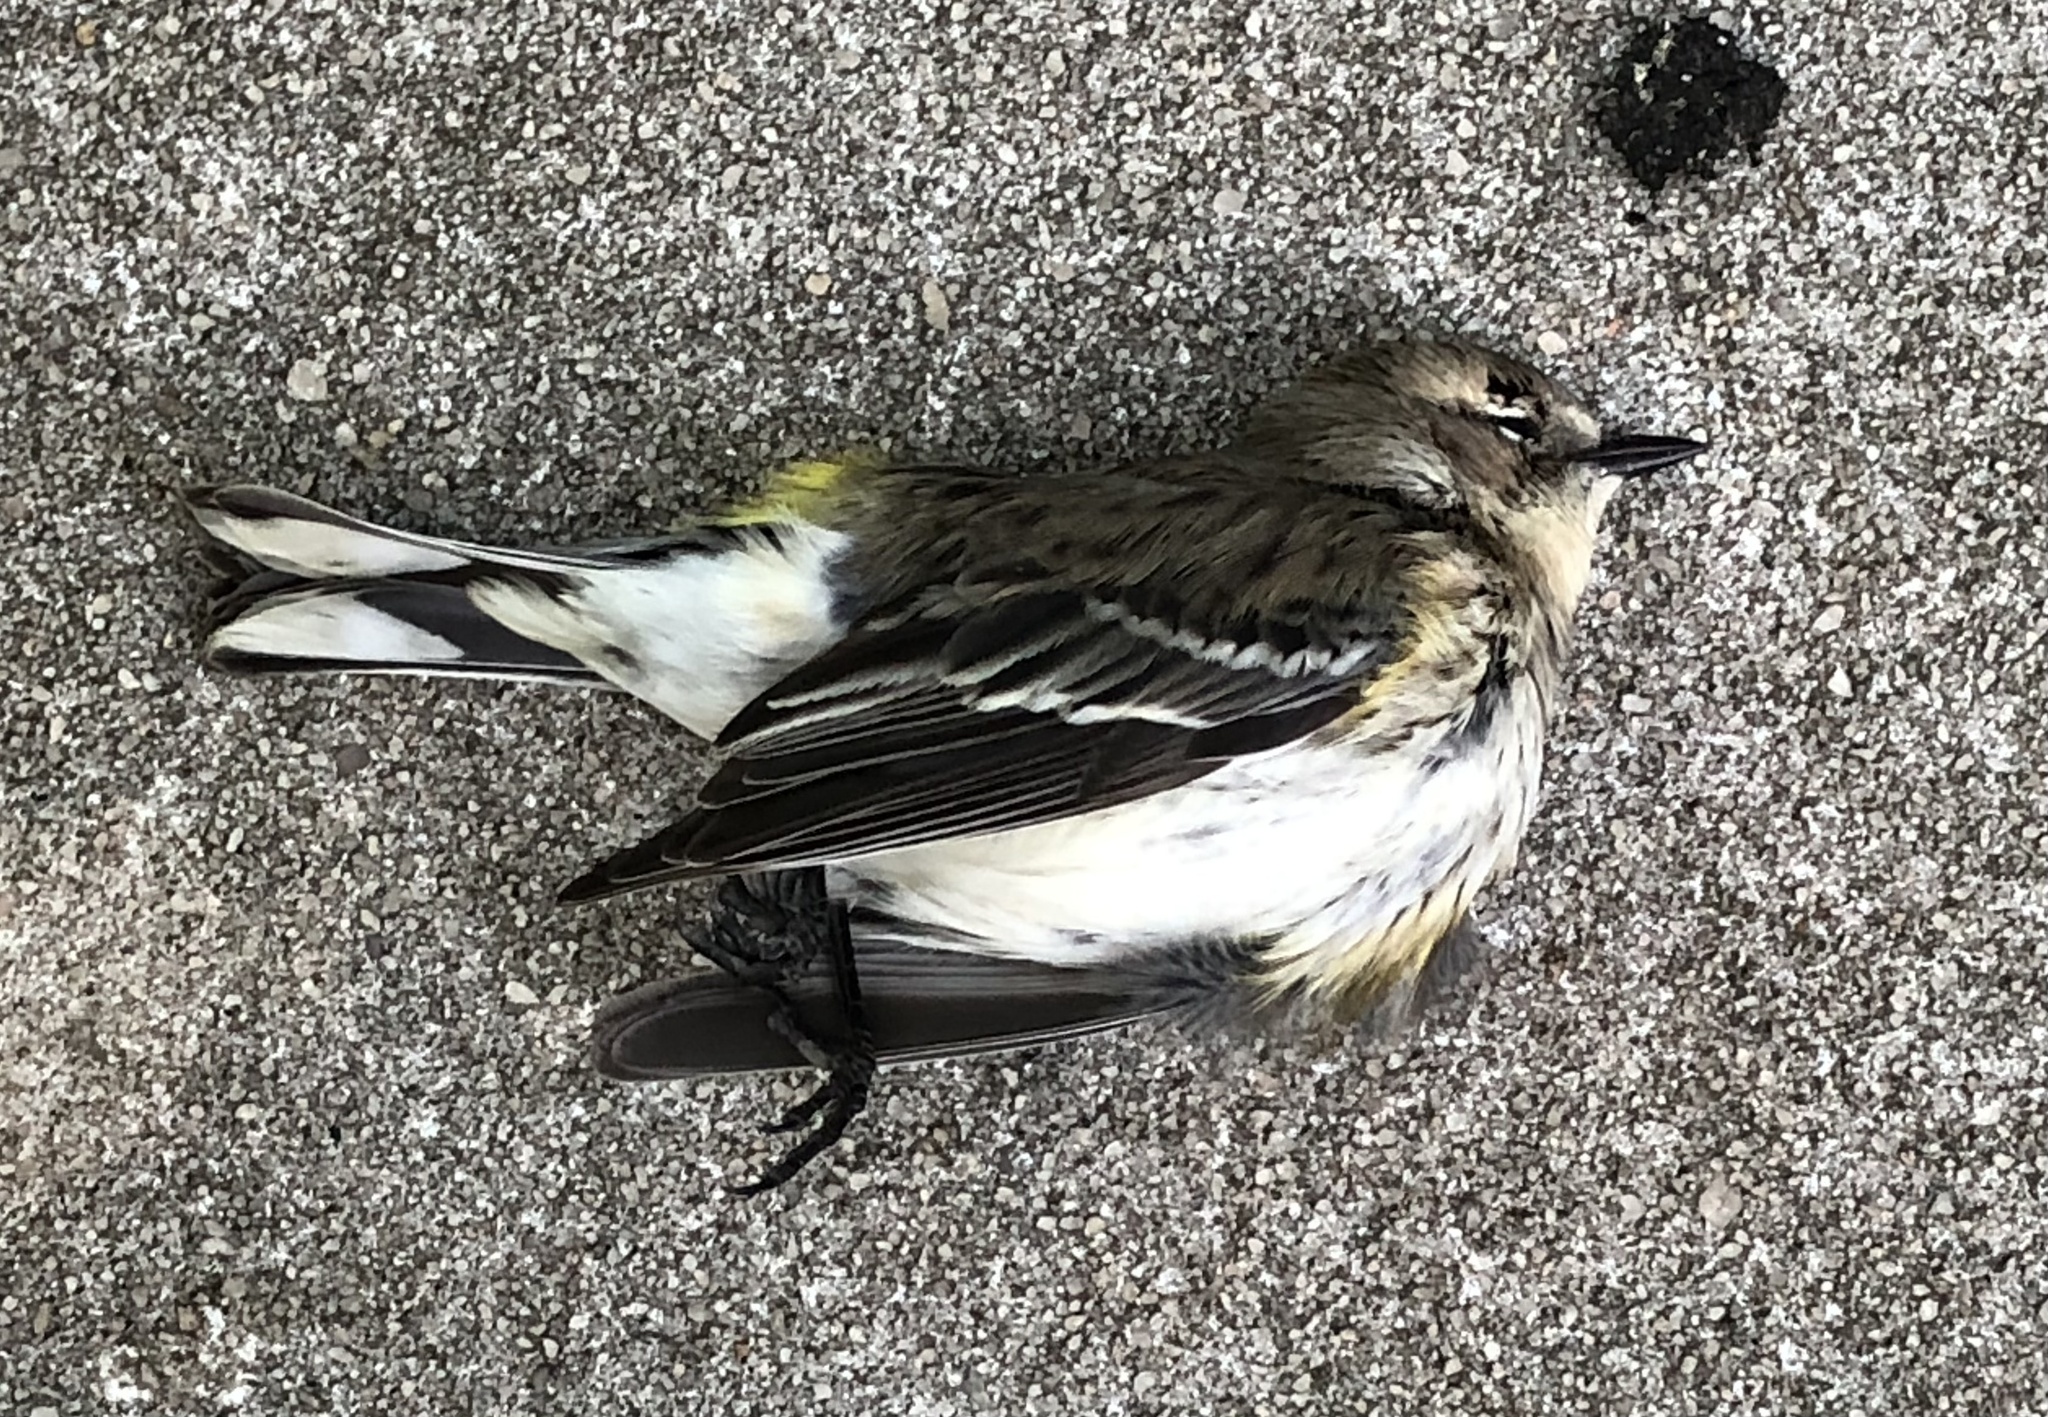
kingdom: Animalia
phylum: Chordata
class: Aves
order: Passeriformes
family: Parulidae
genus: Setophaga
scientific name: Setophaga coronata
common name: Myrtle warbler
